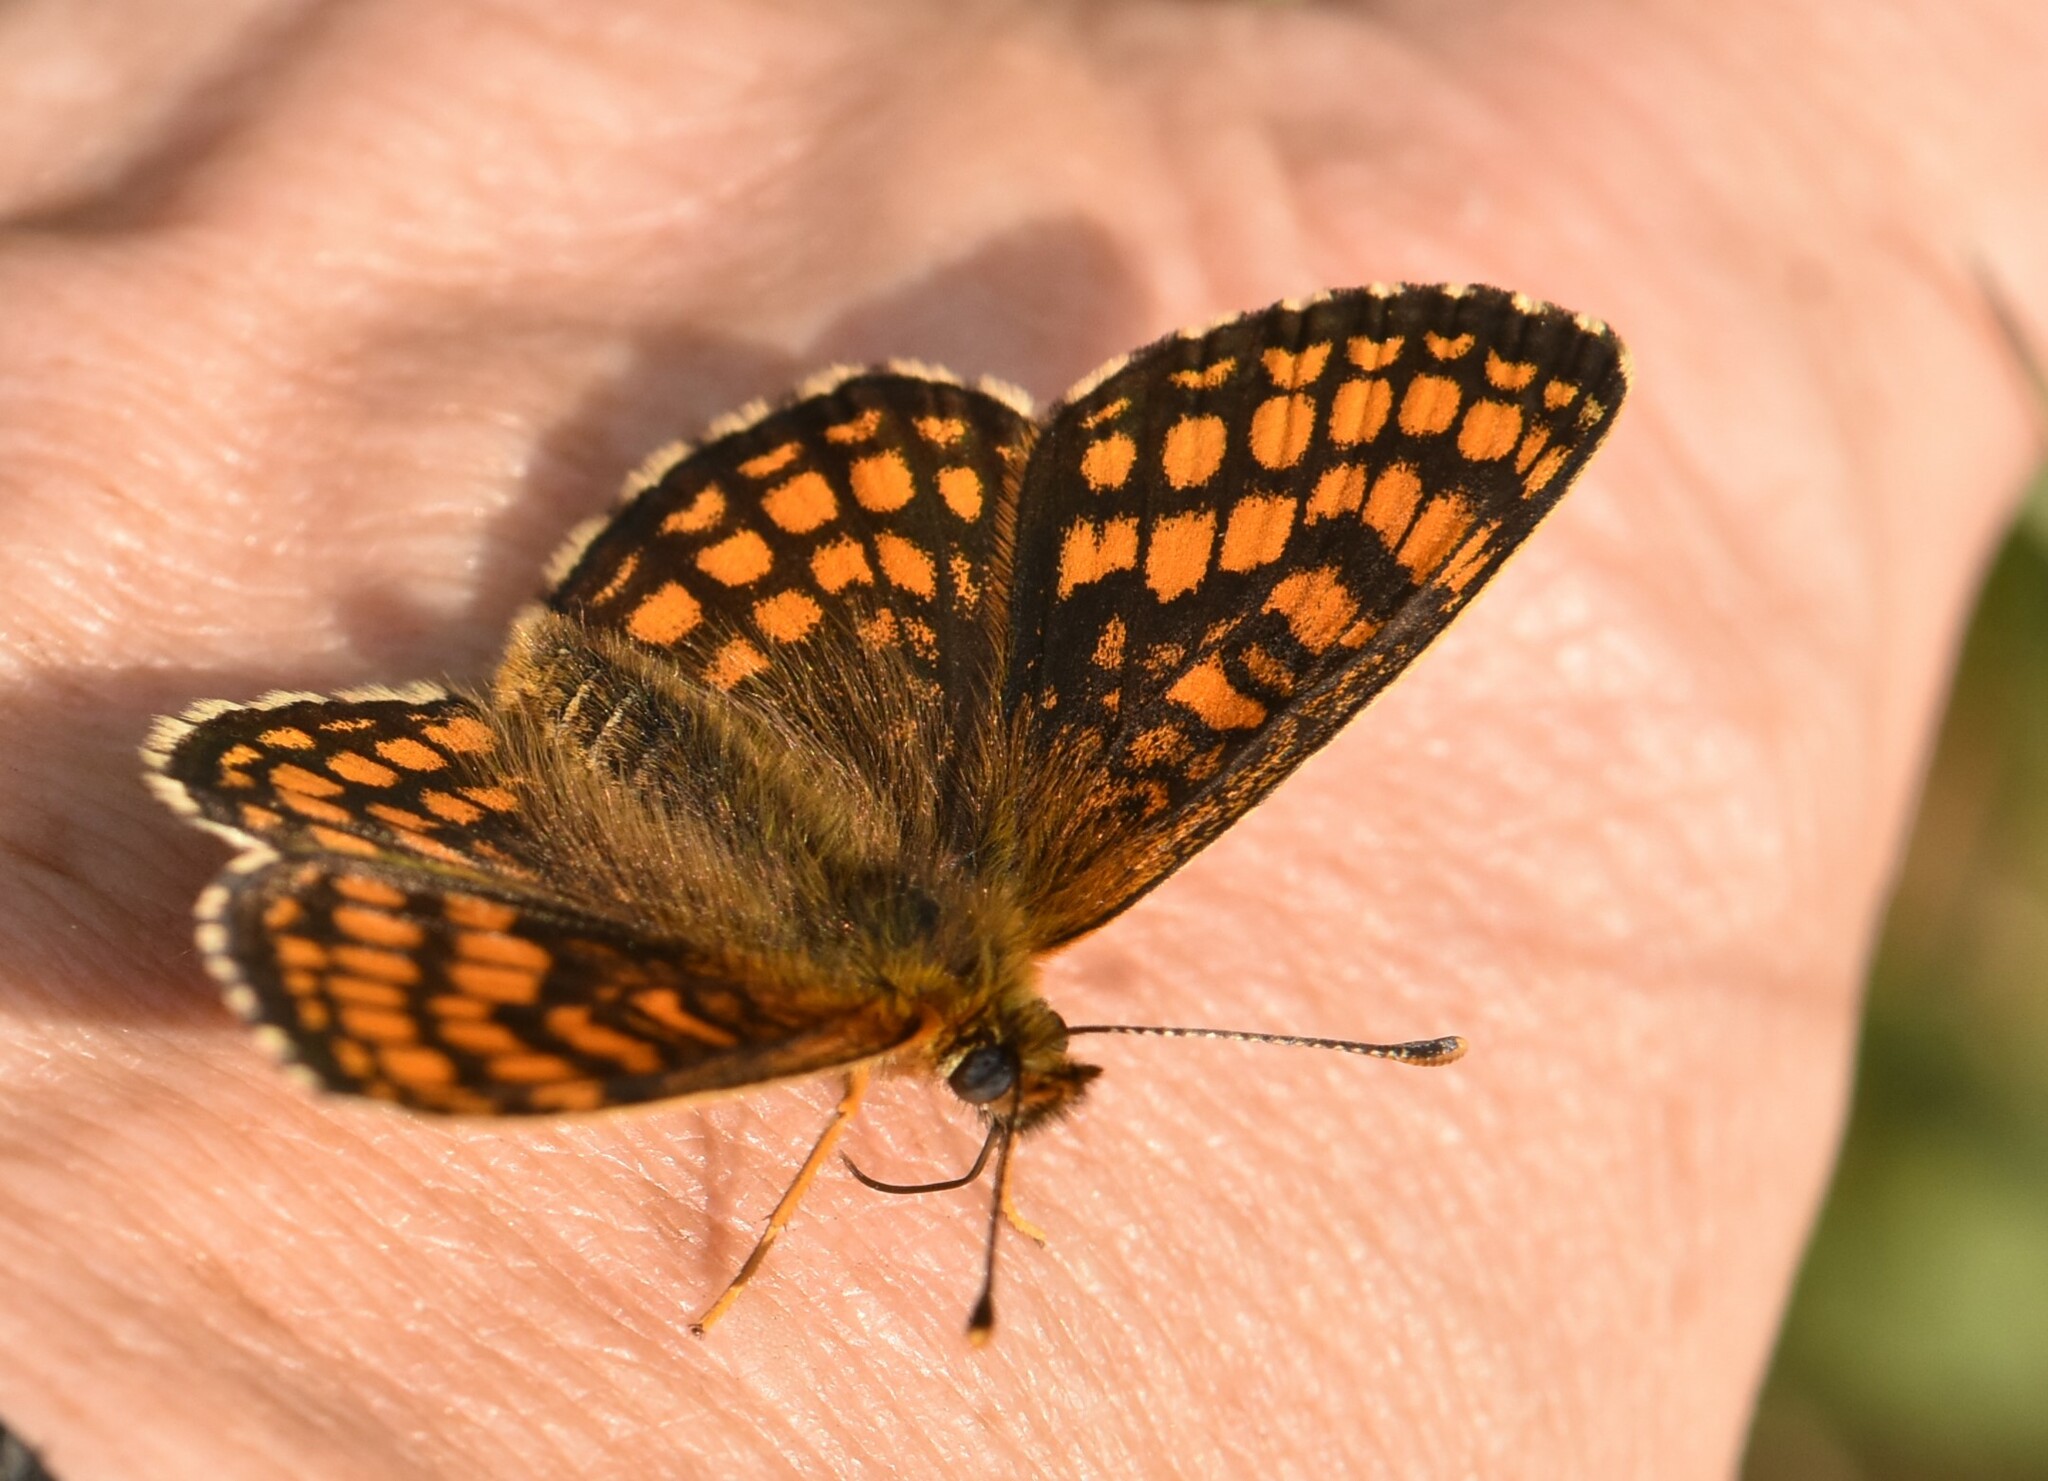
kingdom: Animalia
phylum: Arthropoda
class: Insecta
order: Lepidoptera
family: Nymphalidae
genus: Melitaea
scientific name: Melitaea athalia
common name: Heath fritillary
